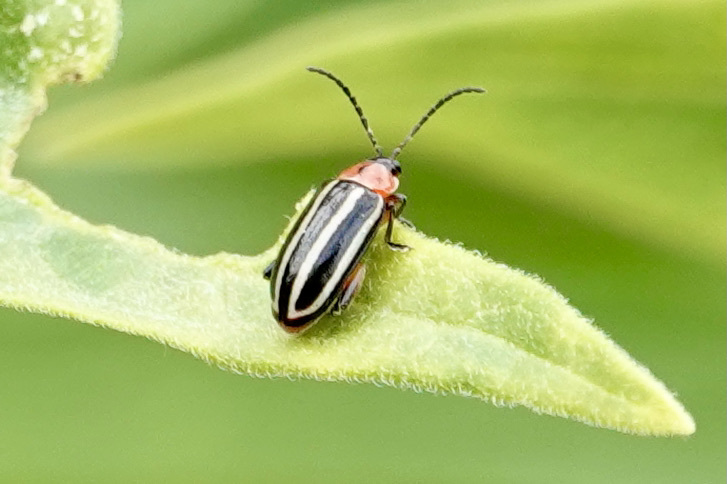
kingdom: Animalia
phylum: Arthropoda
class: Insecta
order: Coleoptera
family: Chrysomelidae
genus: Disonycha
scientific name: Disonycha glabrata
